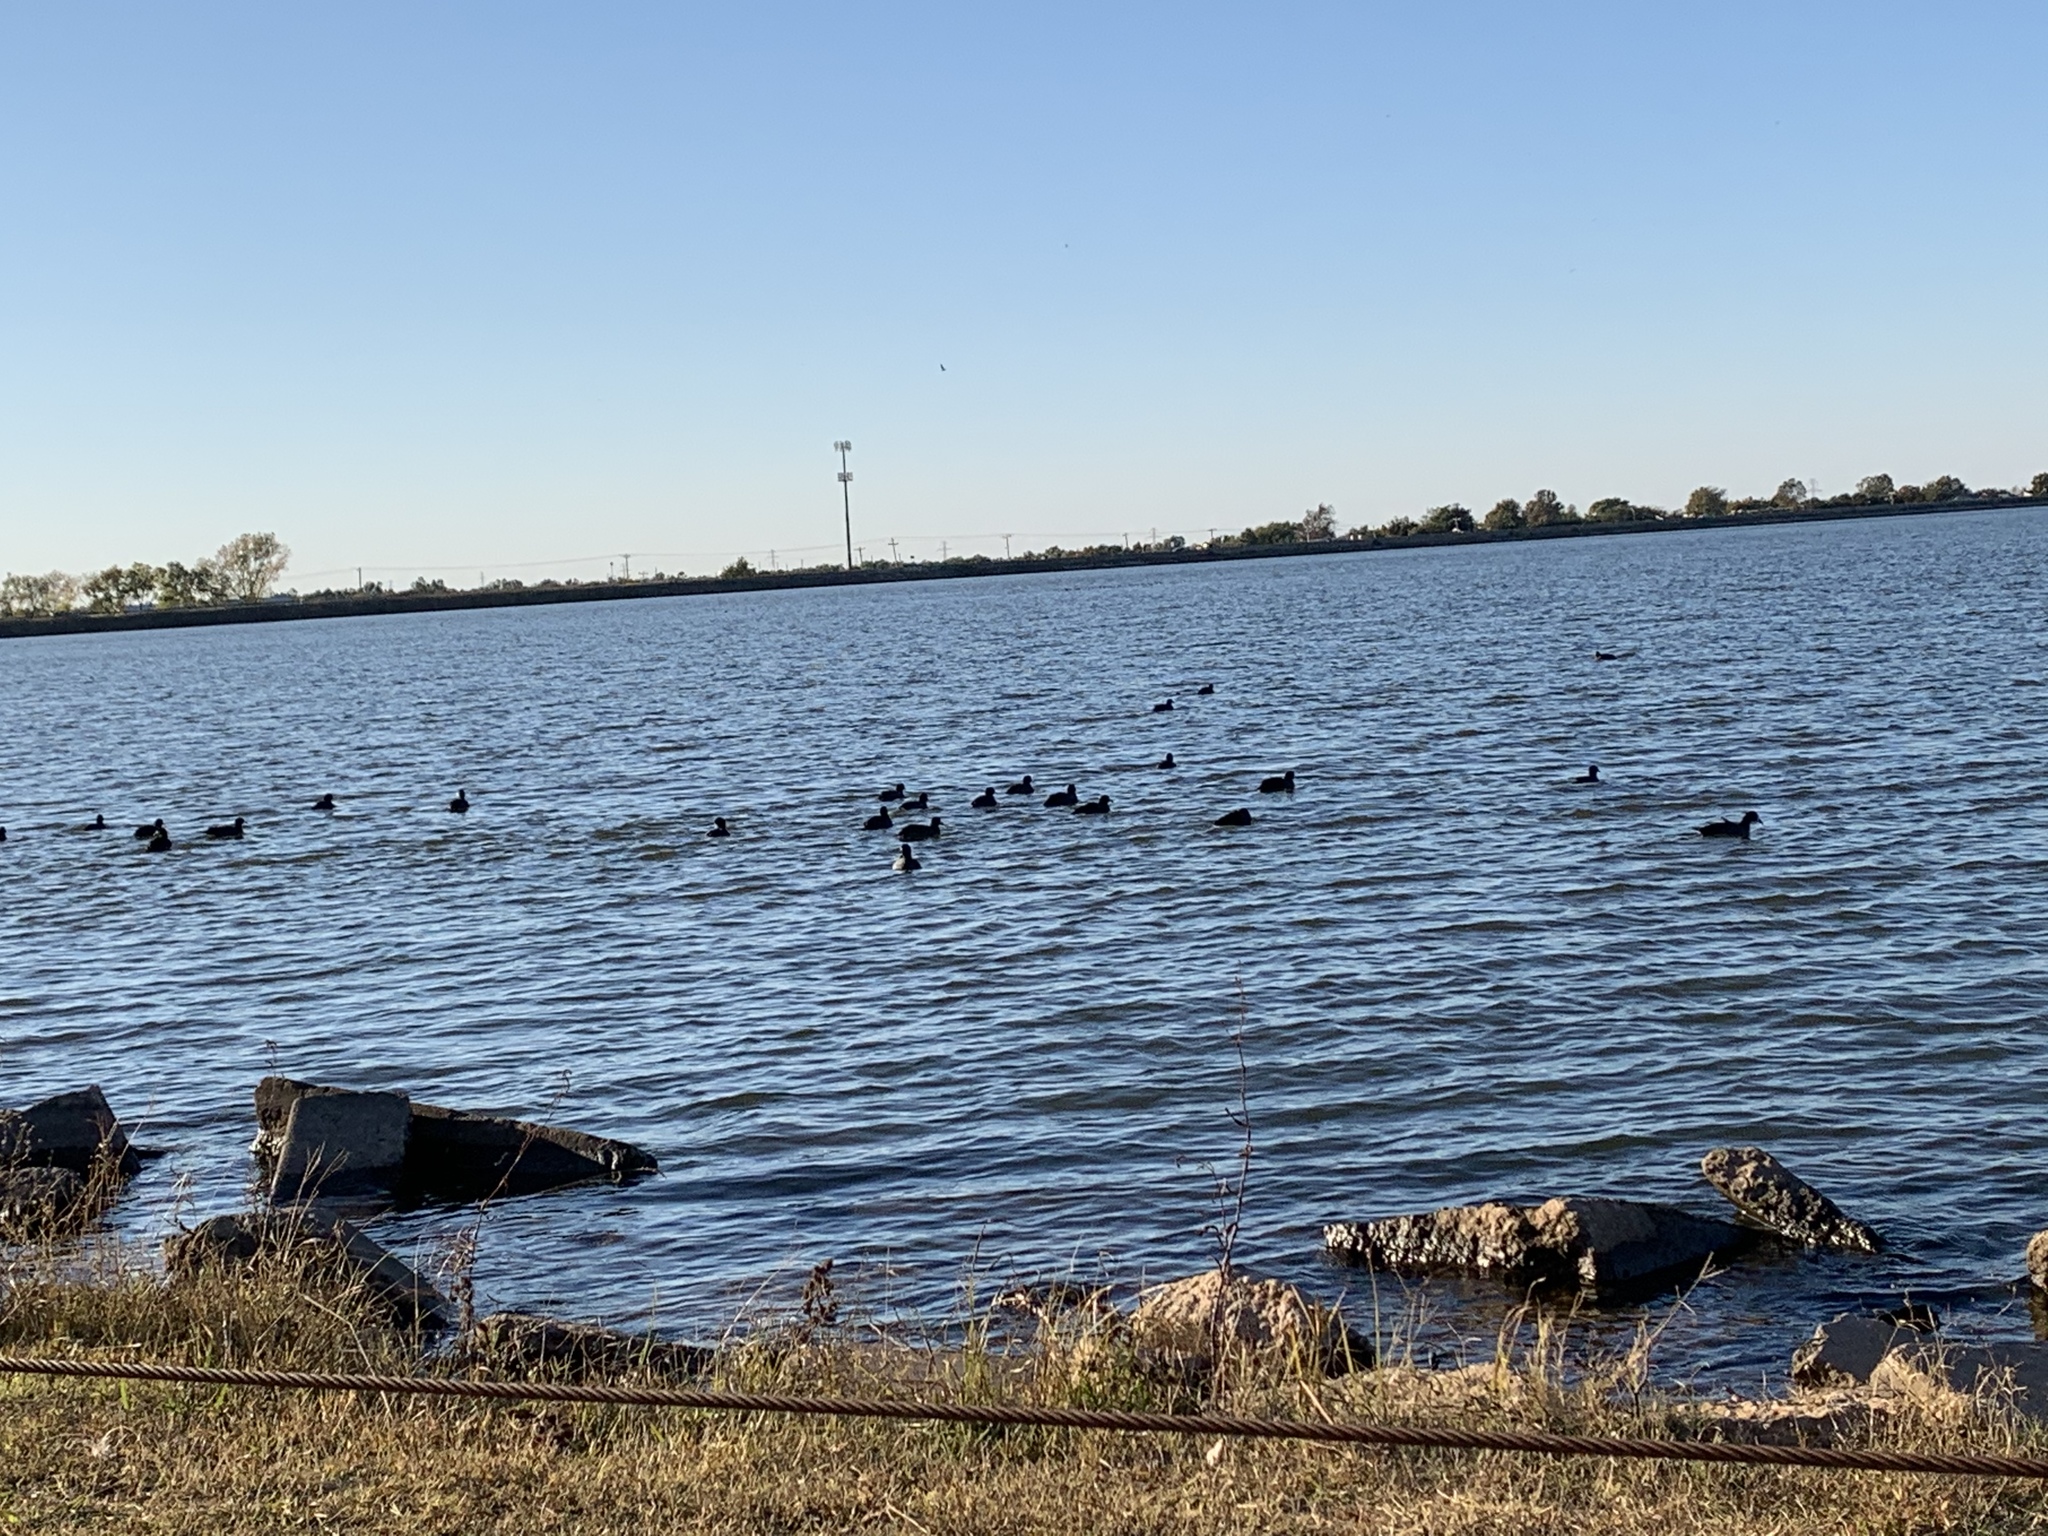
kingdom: Animalia
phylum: Chordata
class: Aves
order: Gruiformes
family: Rallidae
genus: Fulica
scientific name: Fulica americana
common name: American coot
